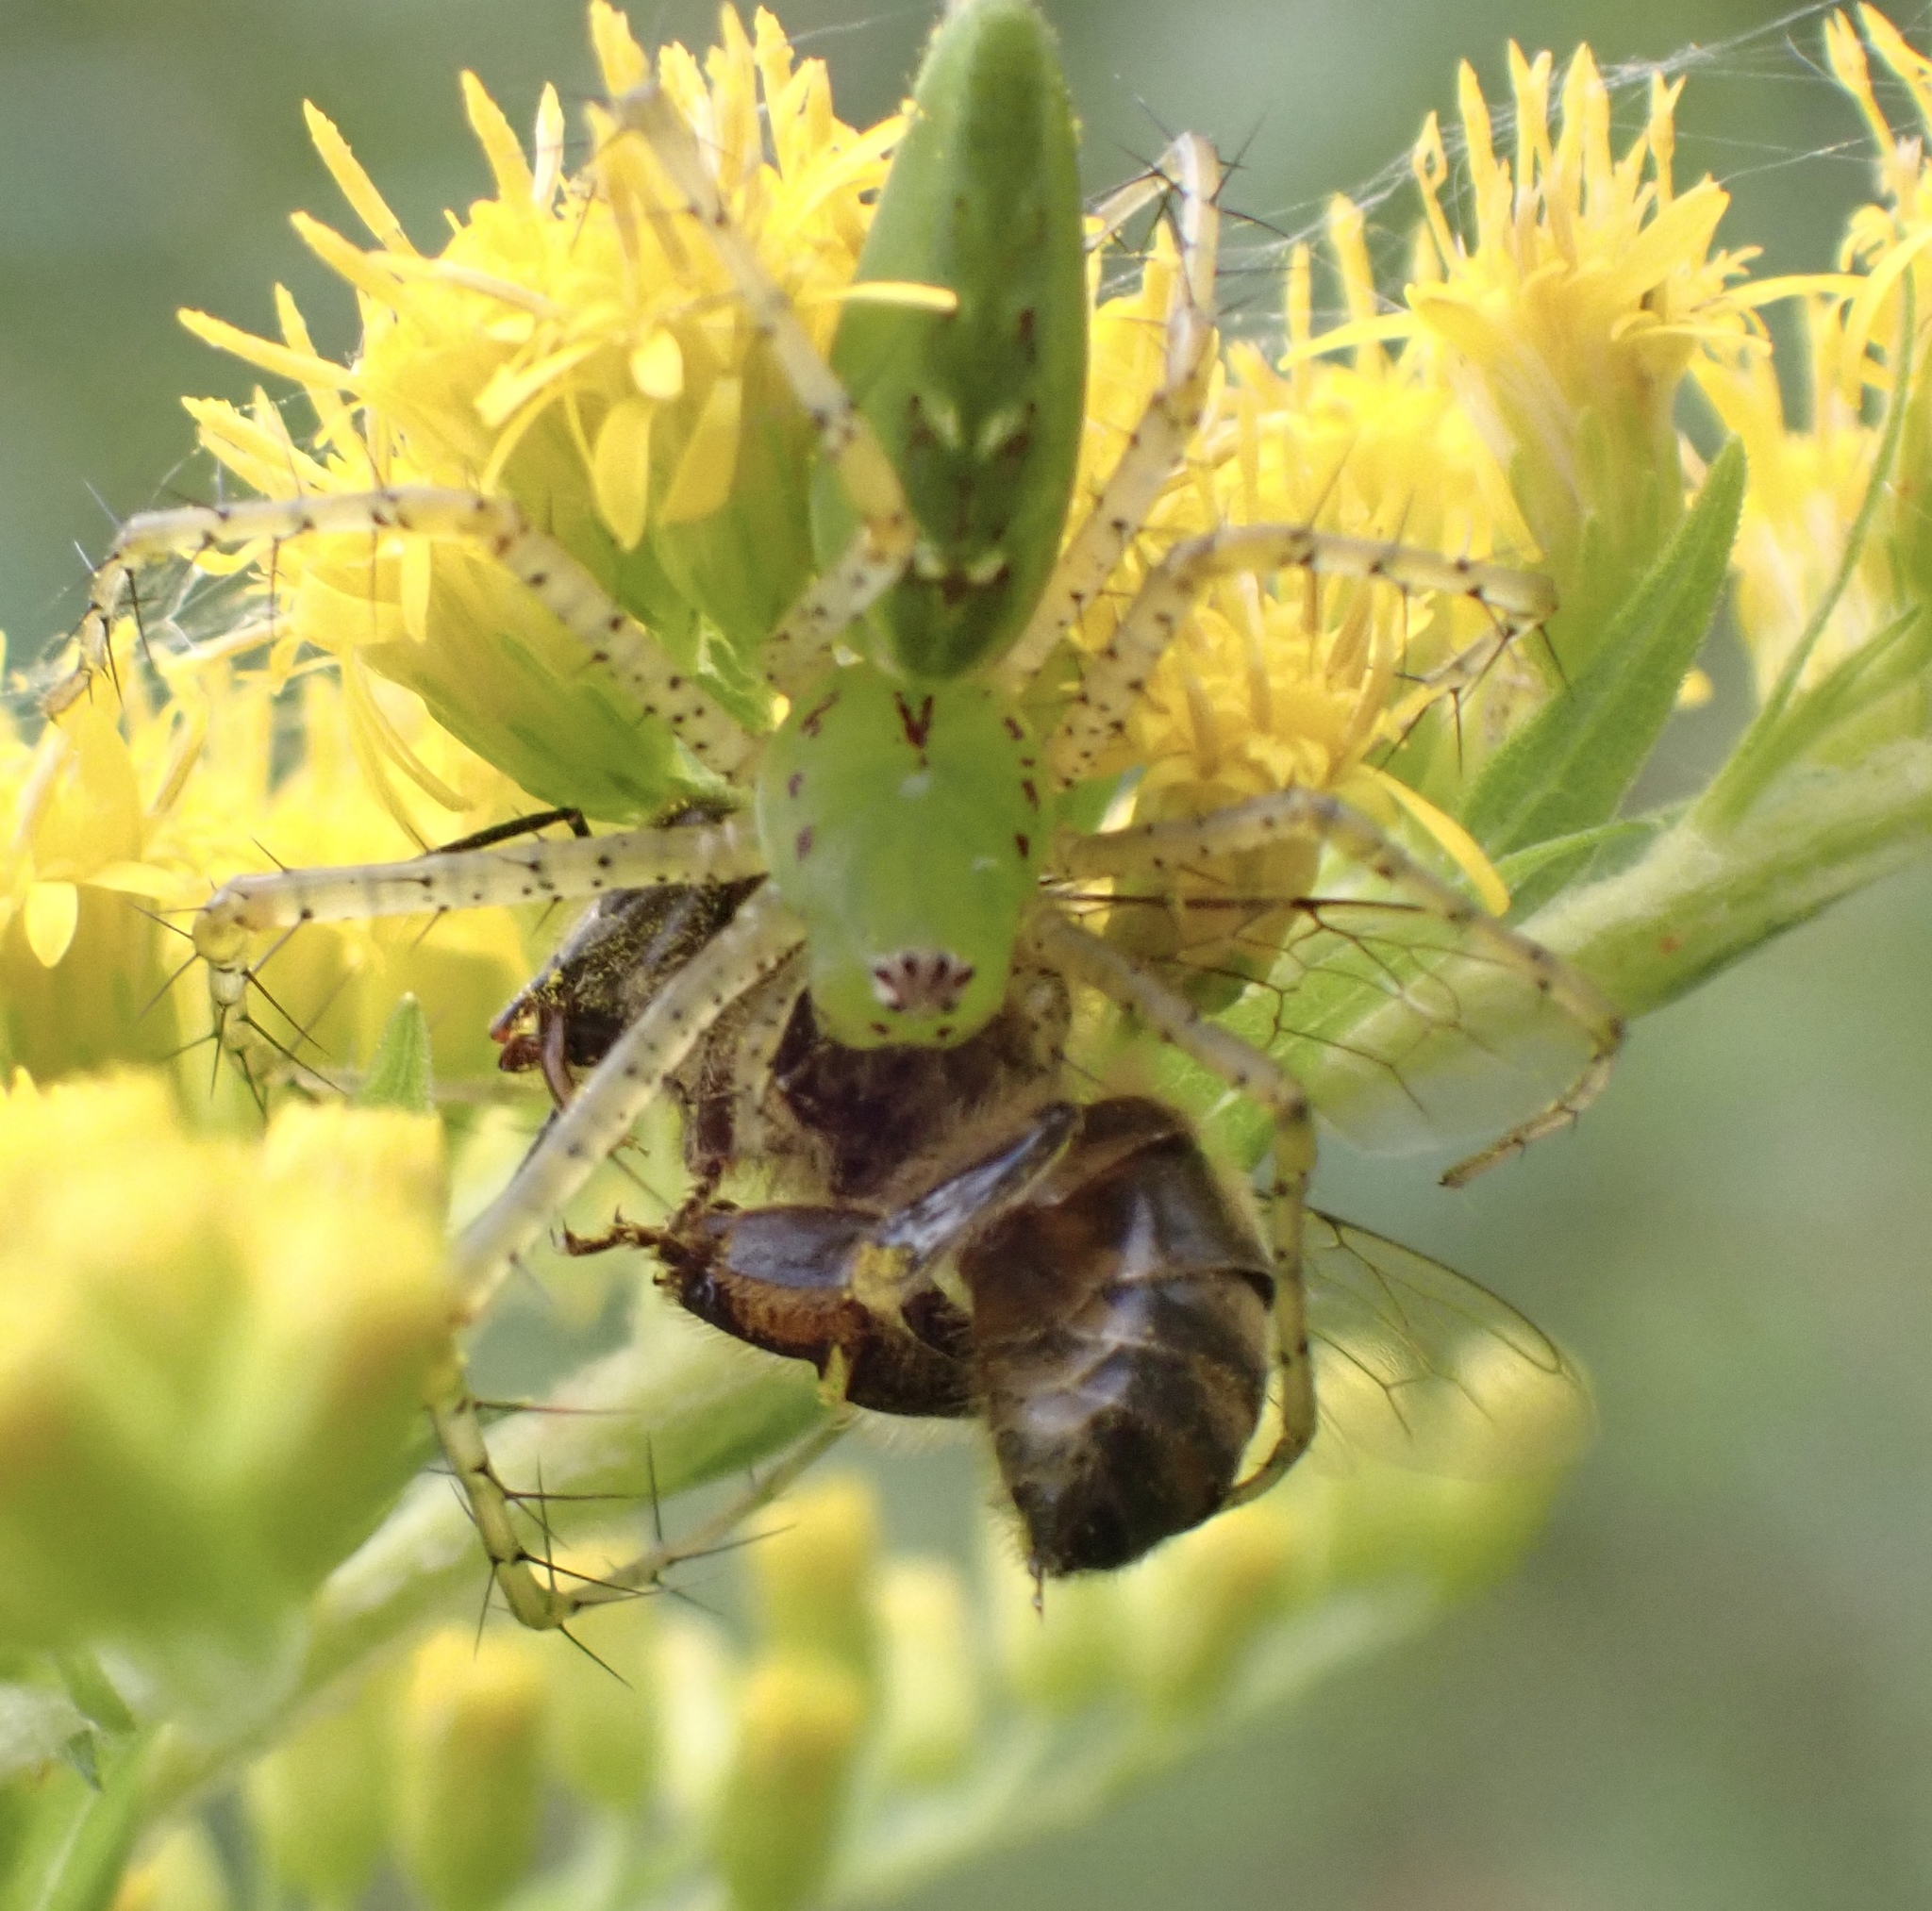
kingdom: Animalia
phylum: Arthropoda
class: Arachnida
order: Araneae
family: Oxyopidae
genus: Peucetia
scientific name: Peucetia viridans
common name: Lynx spiders
